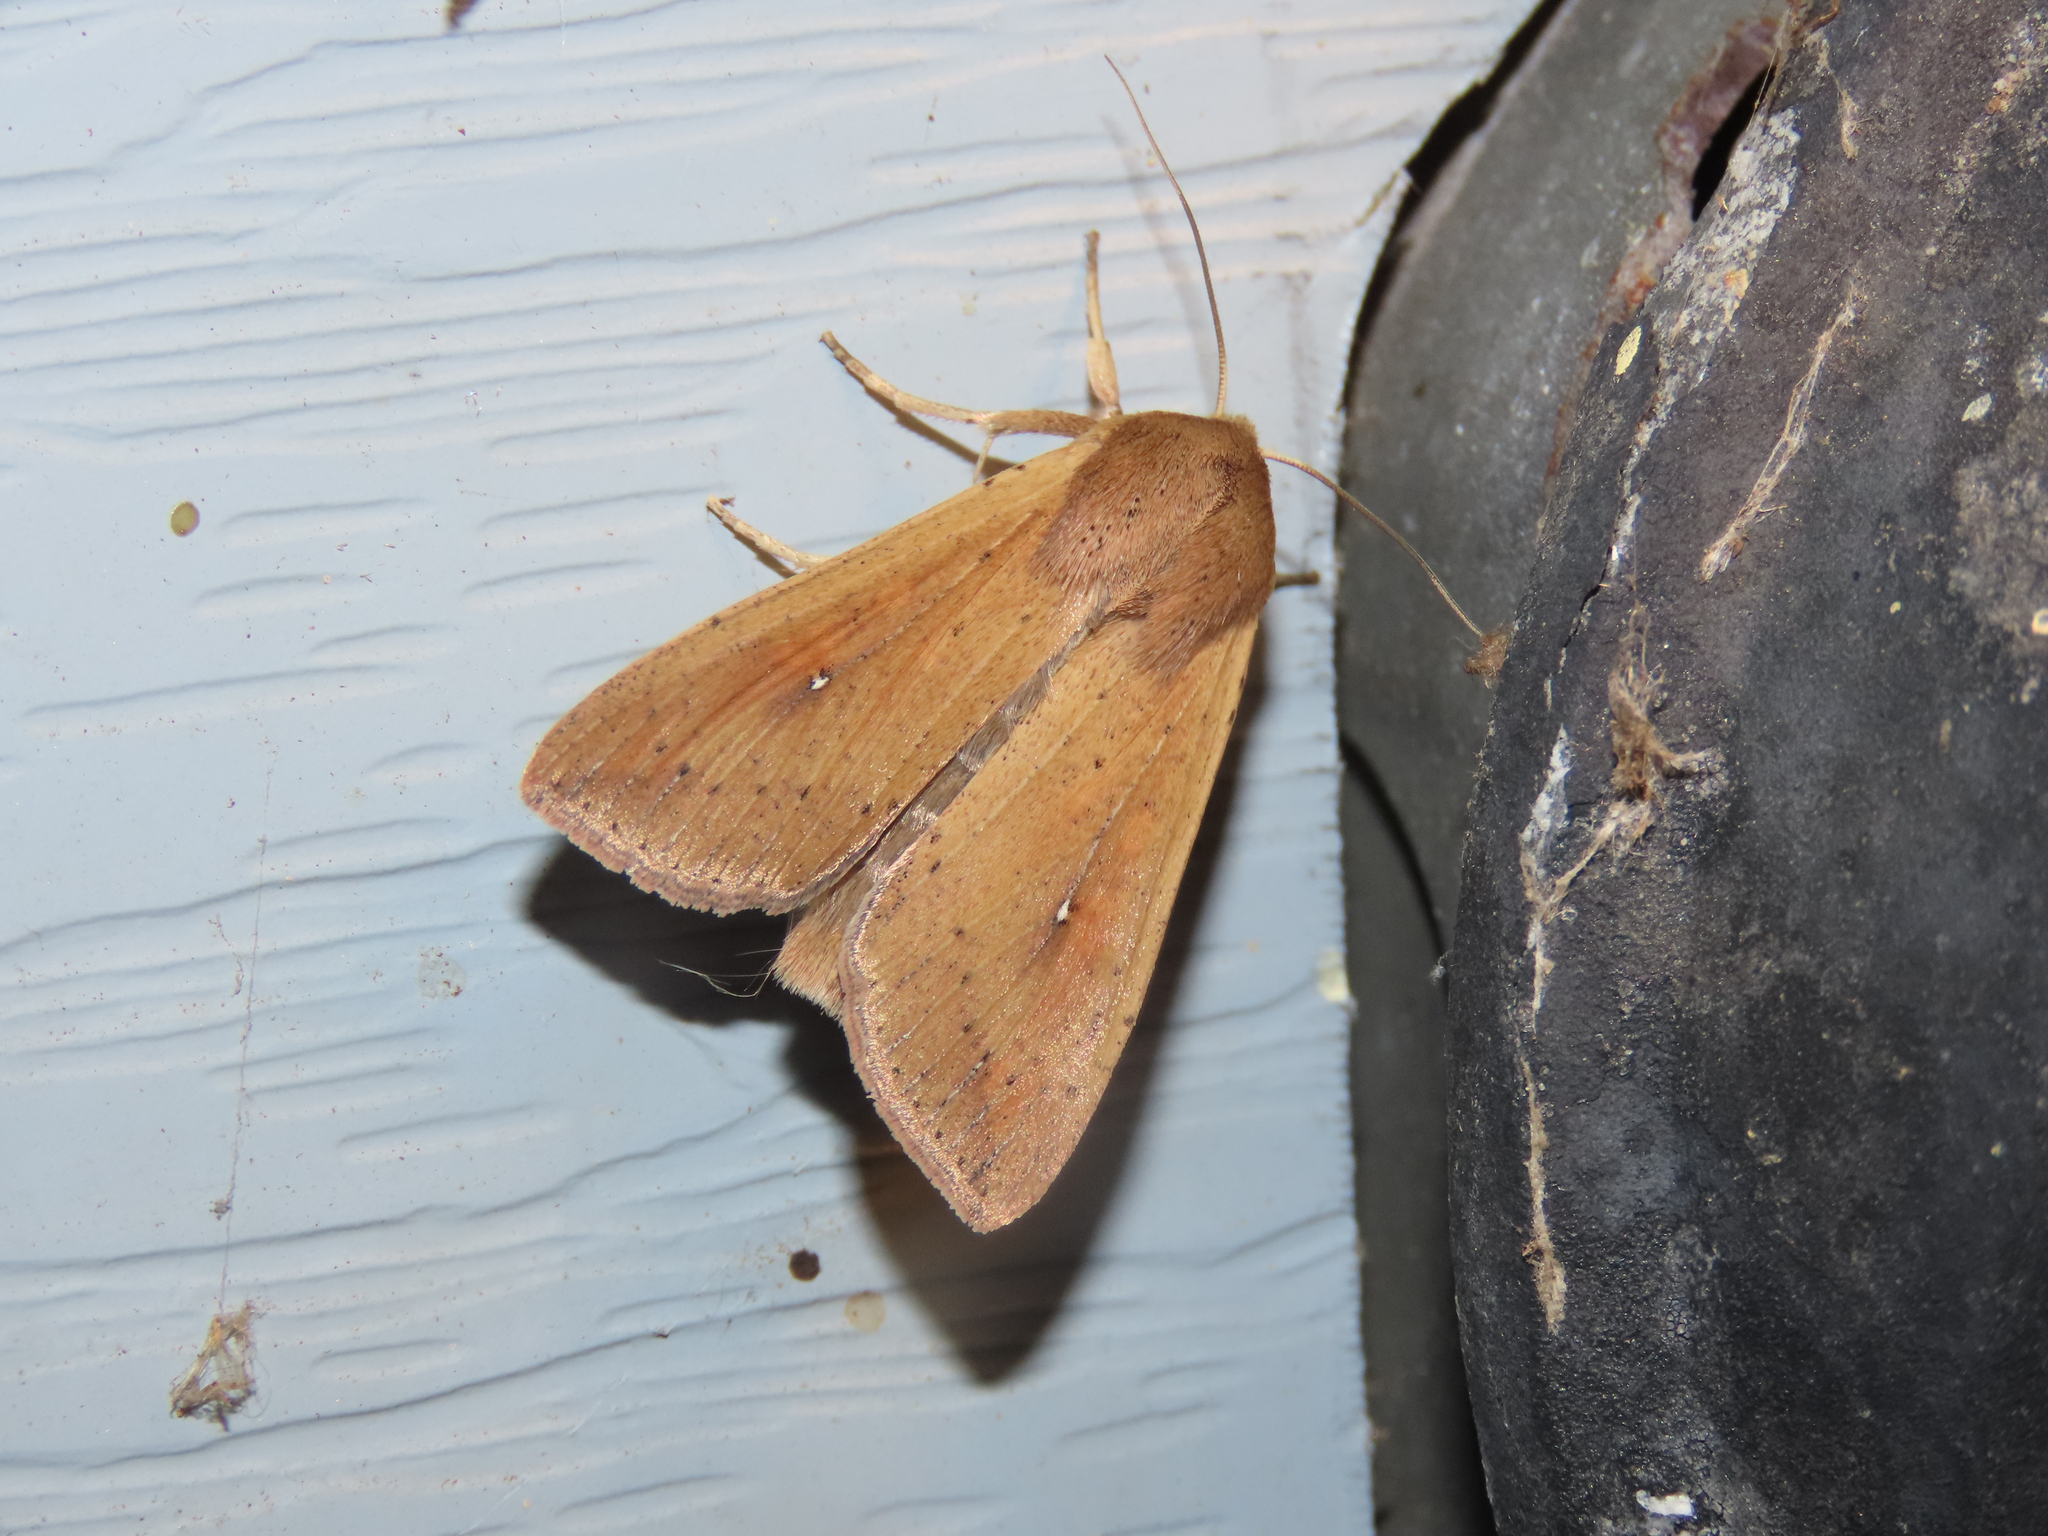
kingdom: Animalia
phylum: Arthropoda
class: Insecta
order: Lepidoptera
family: Noctuidae
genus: Mythimna
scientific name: Mythimna unipuncta
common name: White-speck
